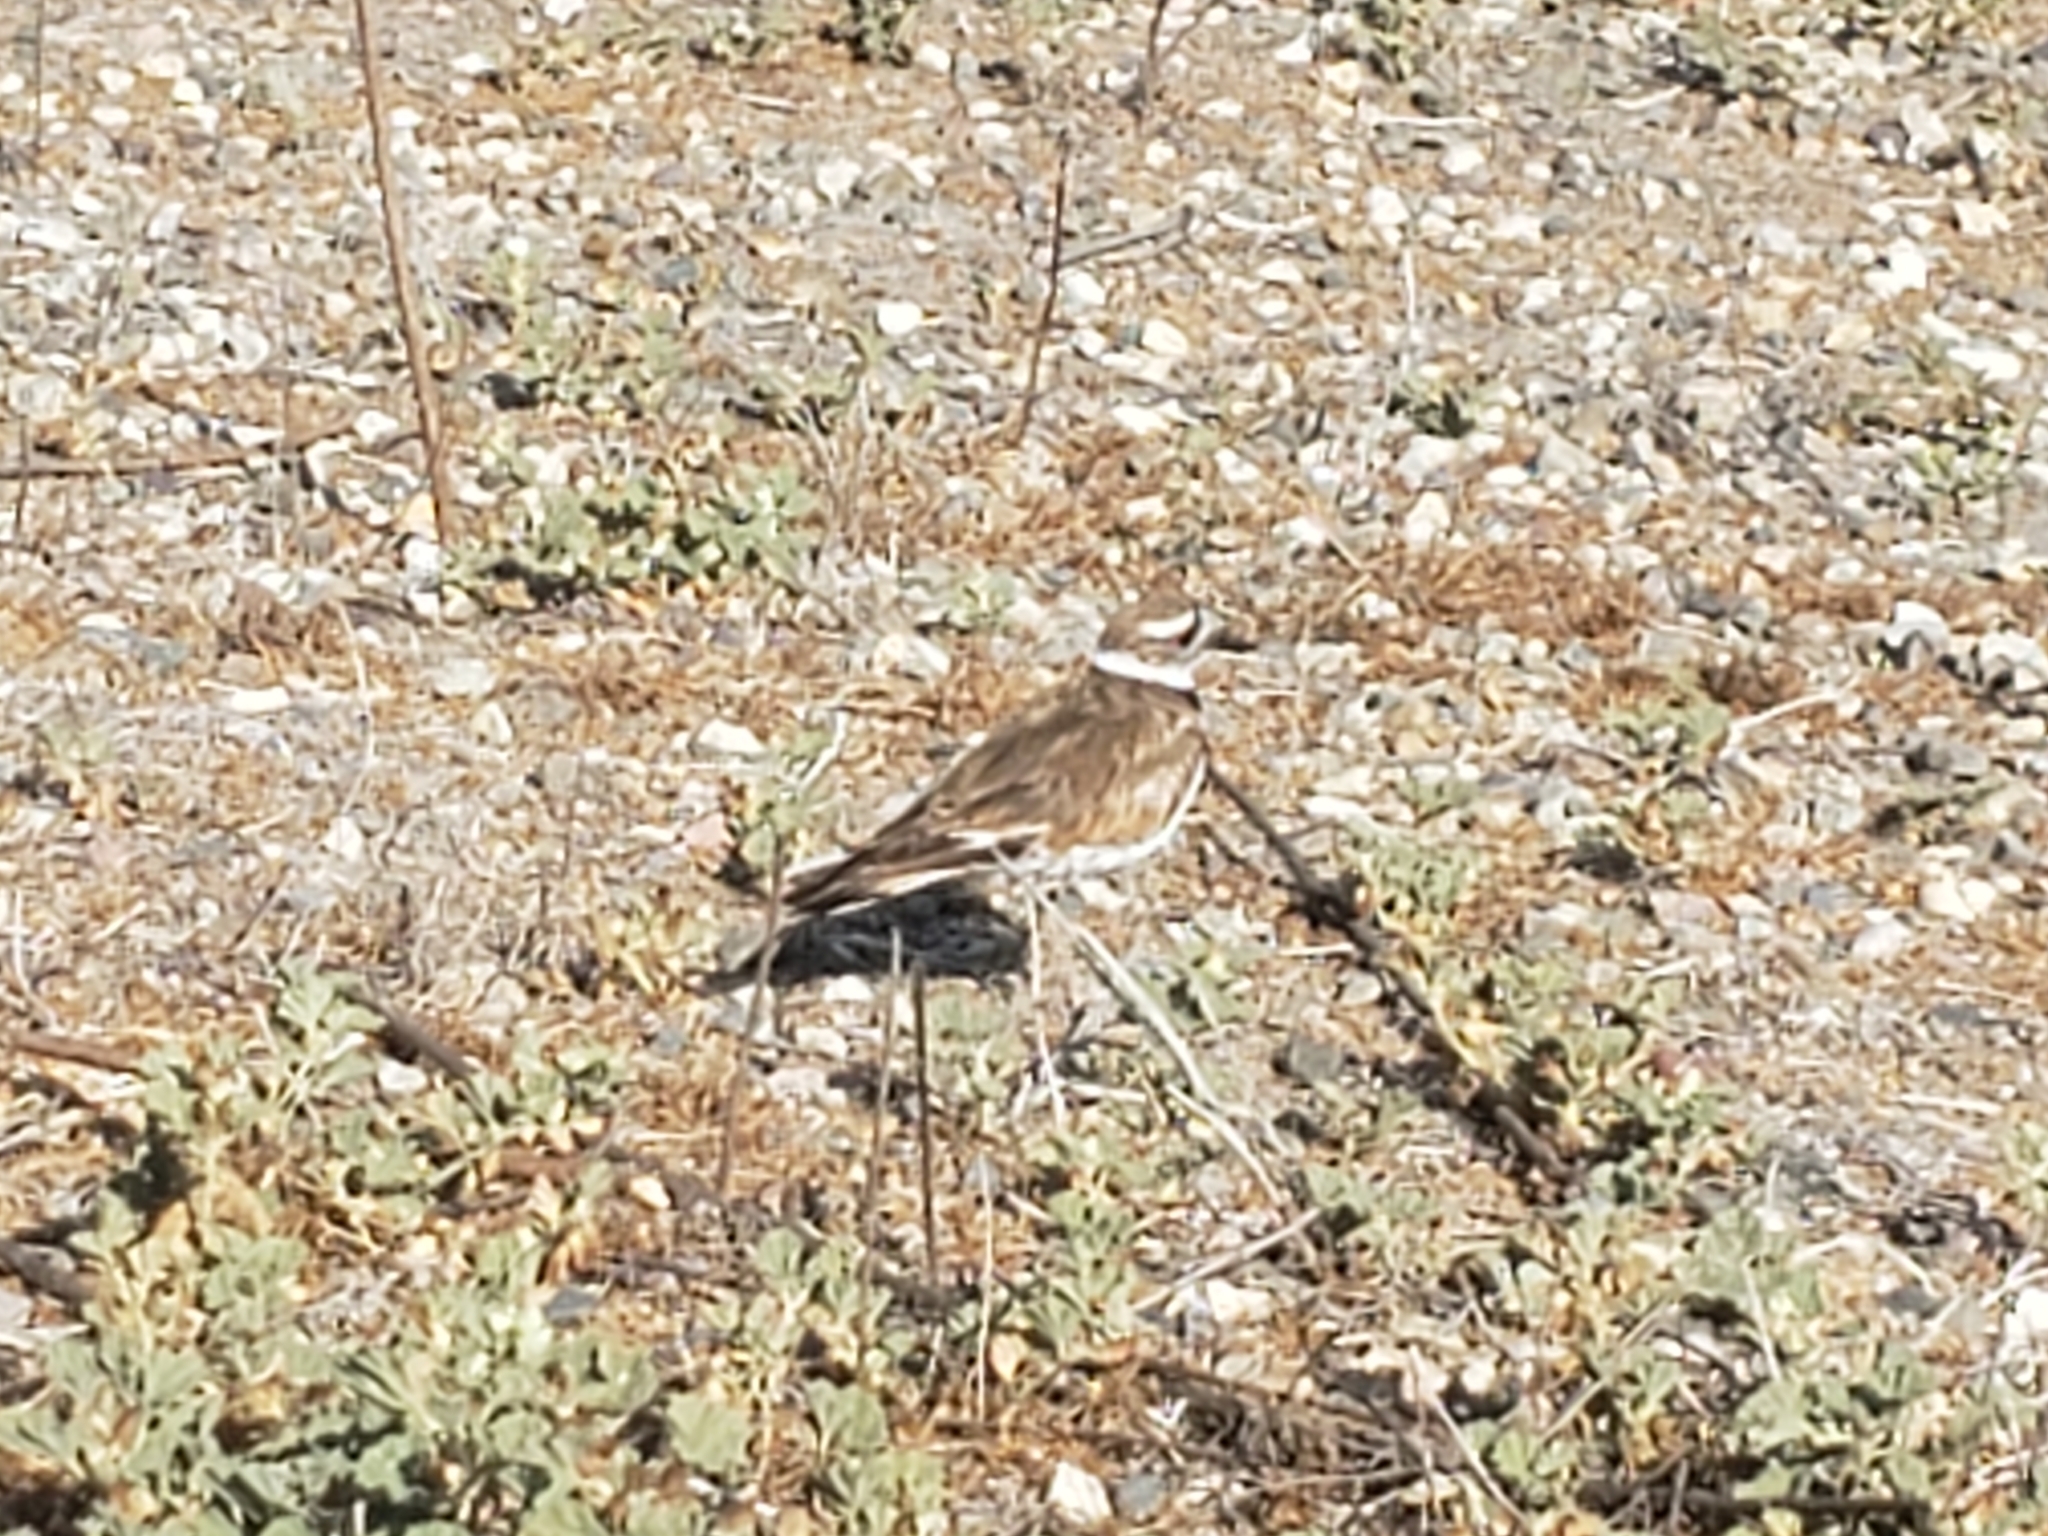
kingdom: Animalia
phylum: Chordata
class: Aves
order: Charadriiformes
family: Charadriidae
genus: Charadrius
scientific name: Charadrius vociferus
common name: Killdeer
